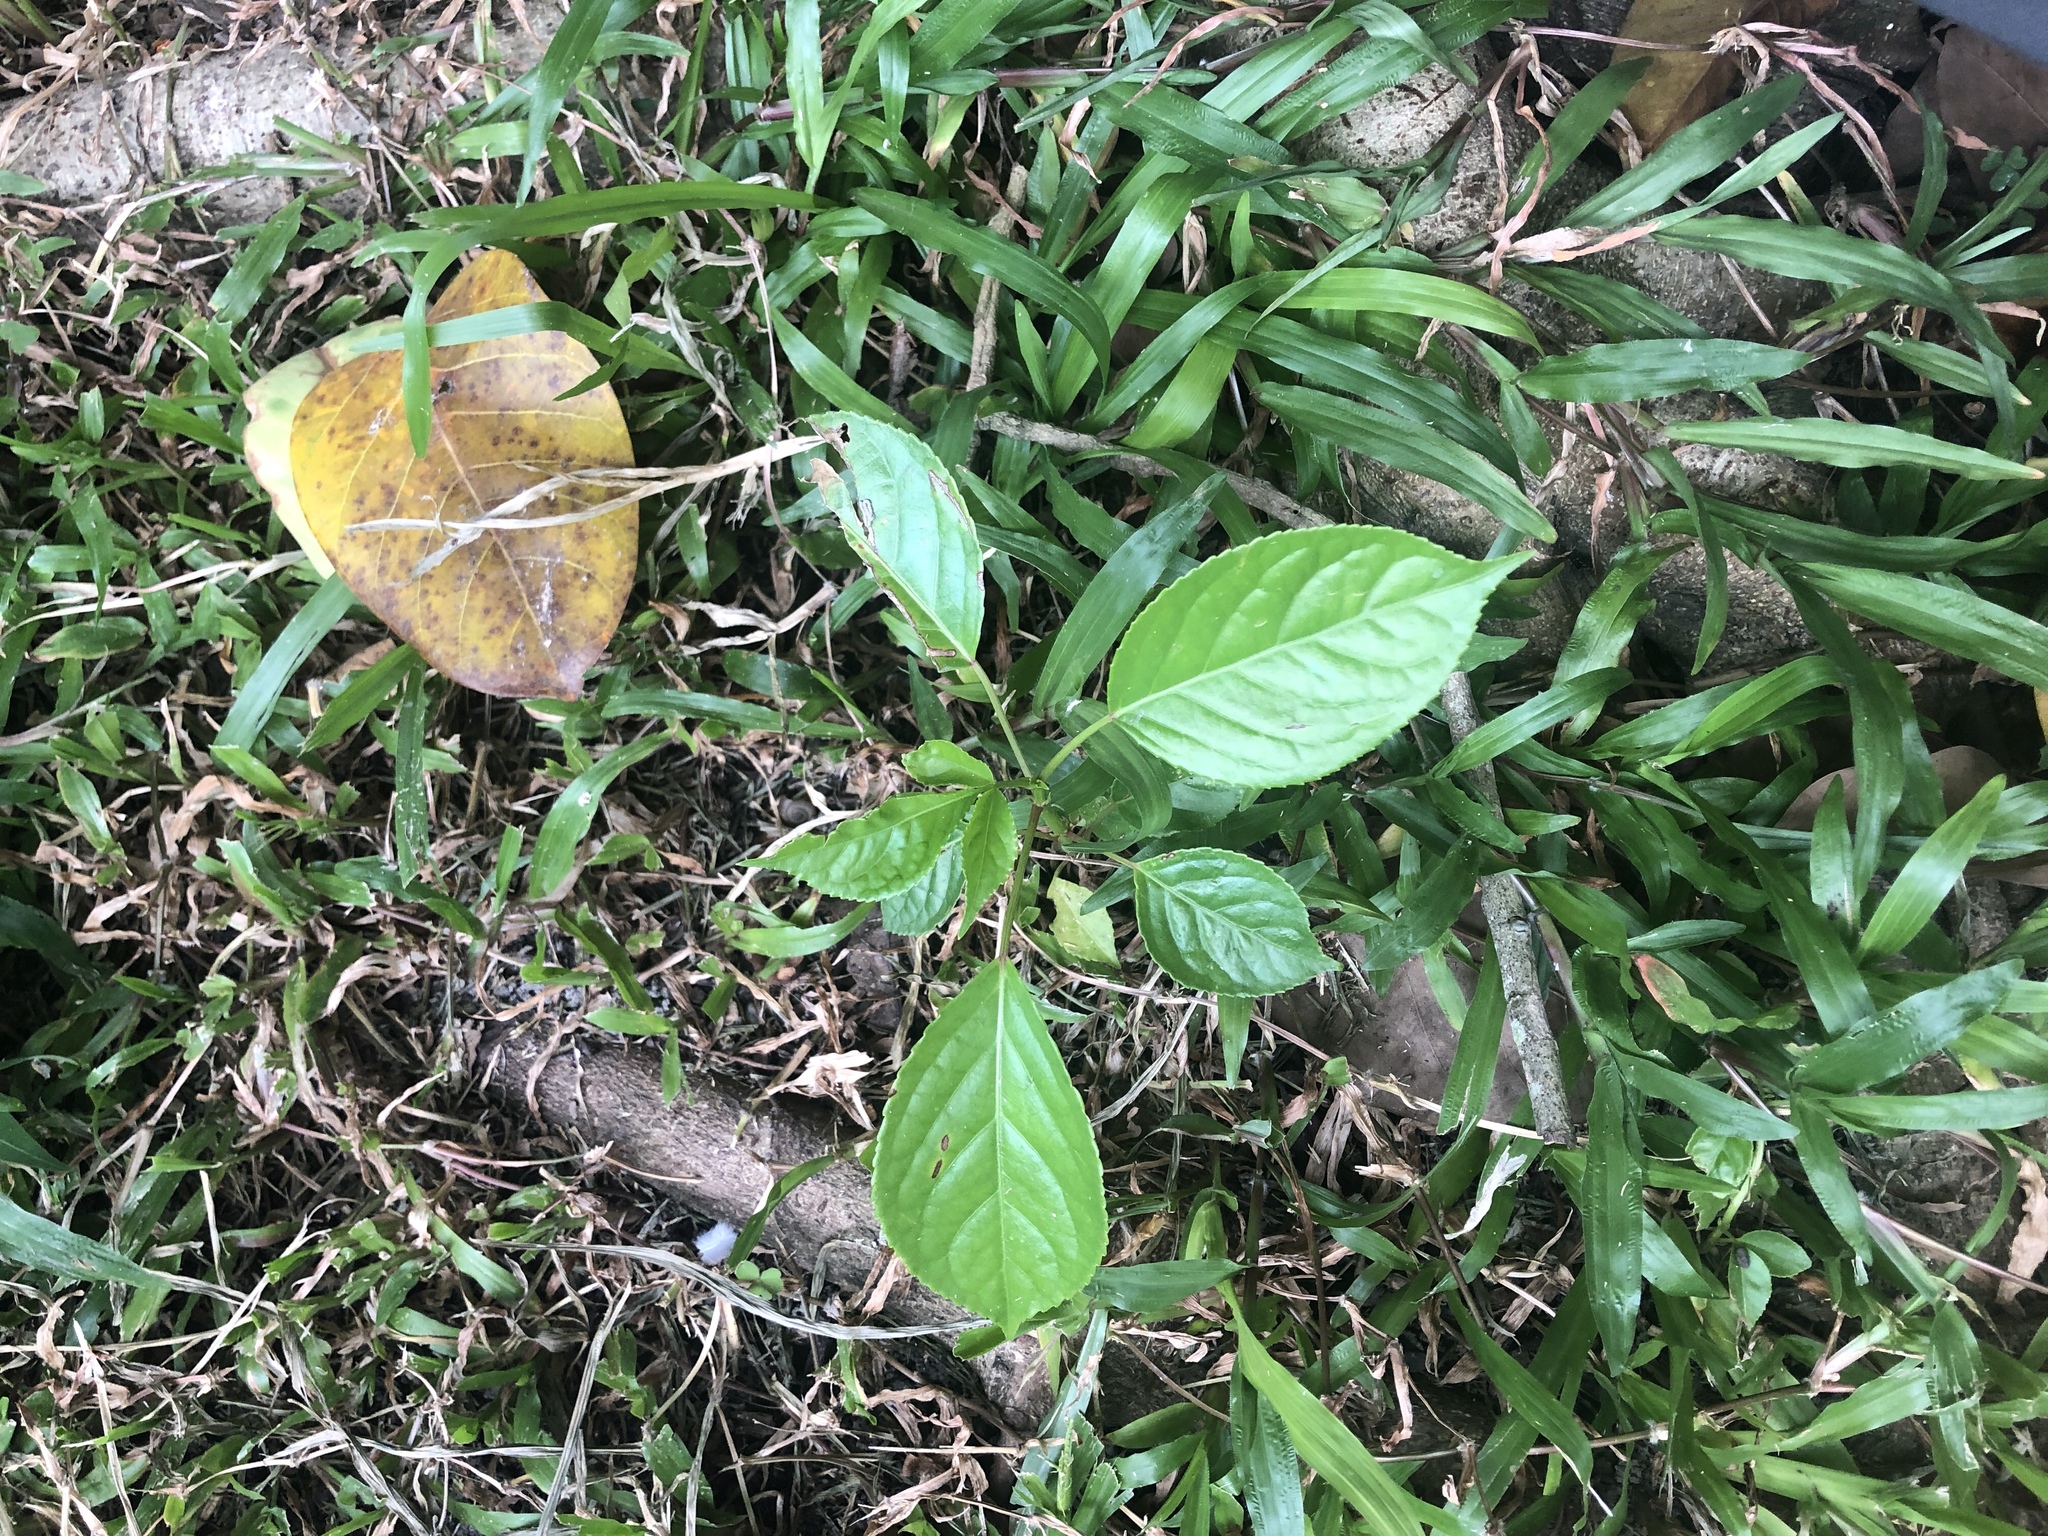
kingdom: Plantae
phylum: Tracheophyta
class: Magnoliopsida
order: Malpighiales
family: Phyllanthaceae
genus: Bischofia
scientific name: Bischofia javanica
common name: Javanese bishopwood
